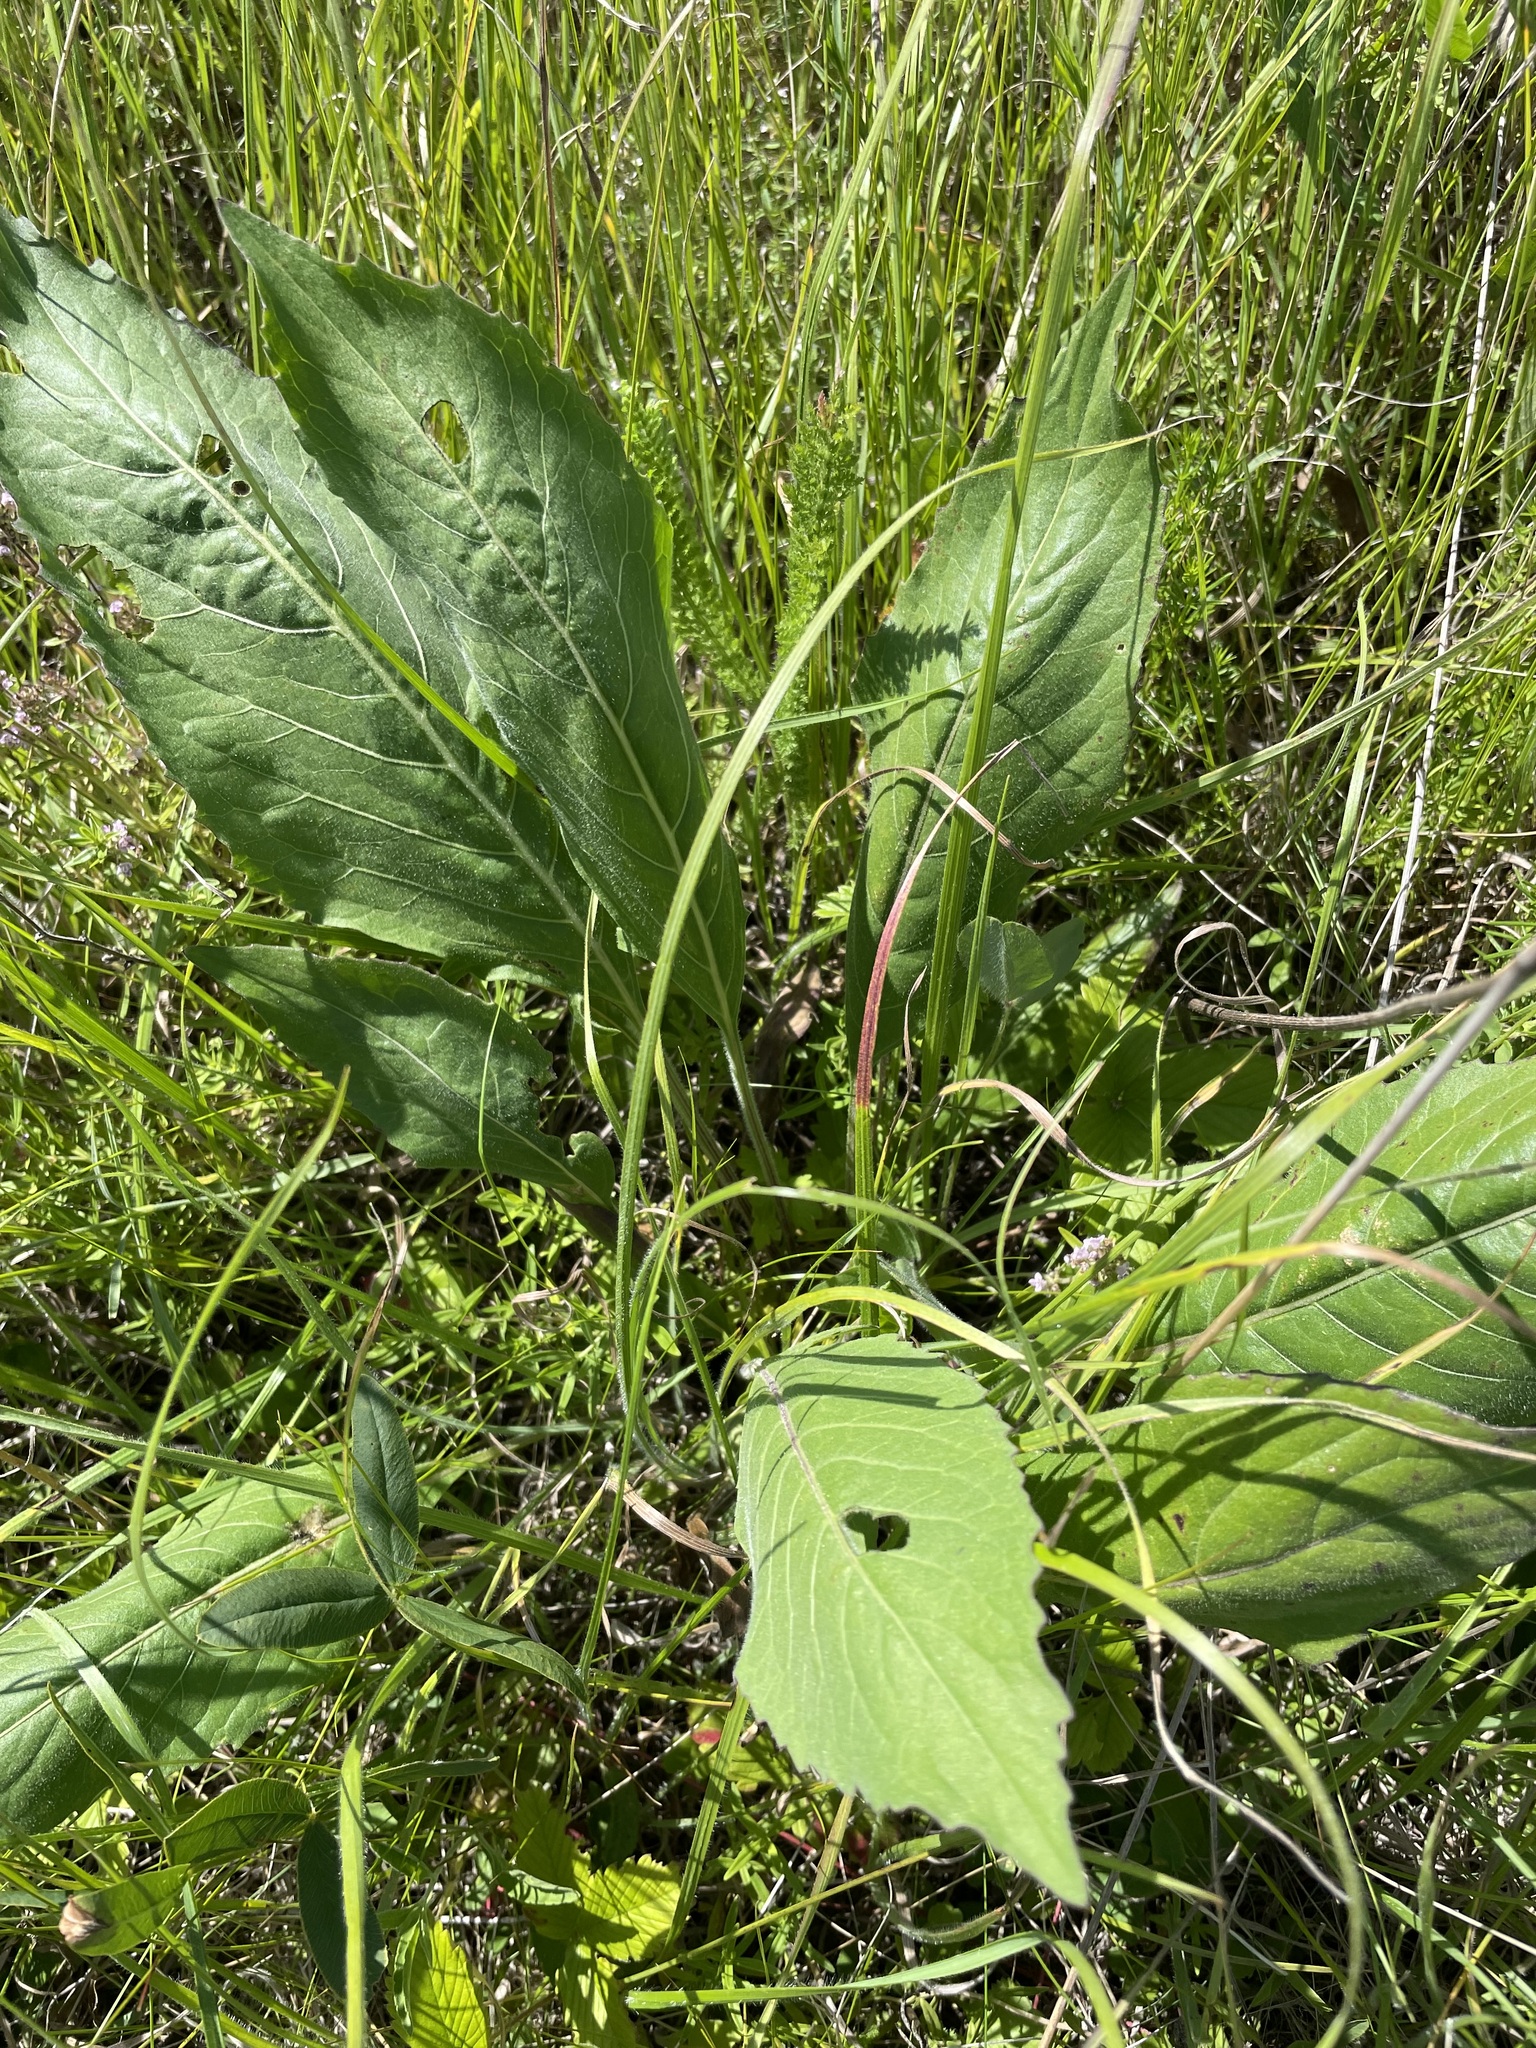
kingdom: Plantae
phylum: Tracheophyta
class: Magnoliopsida
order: Dipsacales
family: Caprifoliaceae
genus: Knautia
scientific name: Knautia arvensis
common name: Field scabiosa
